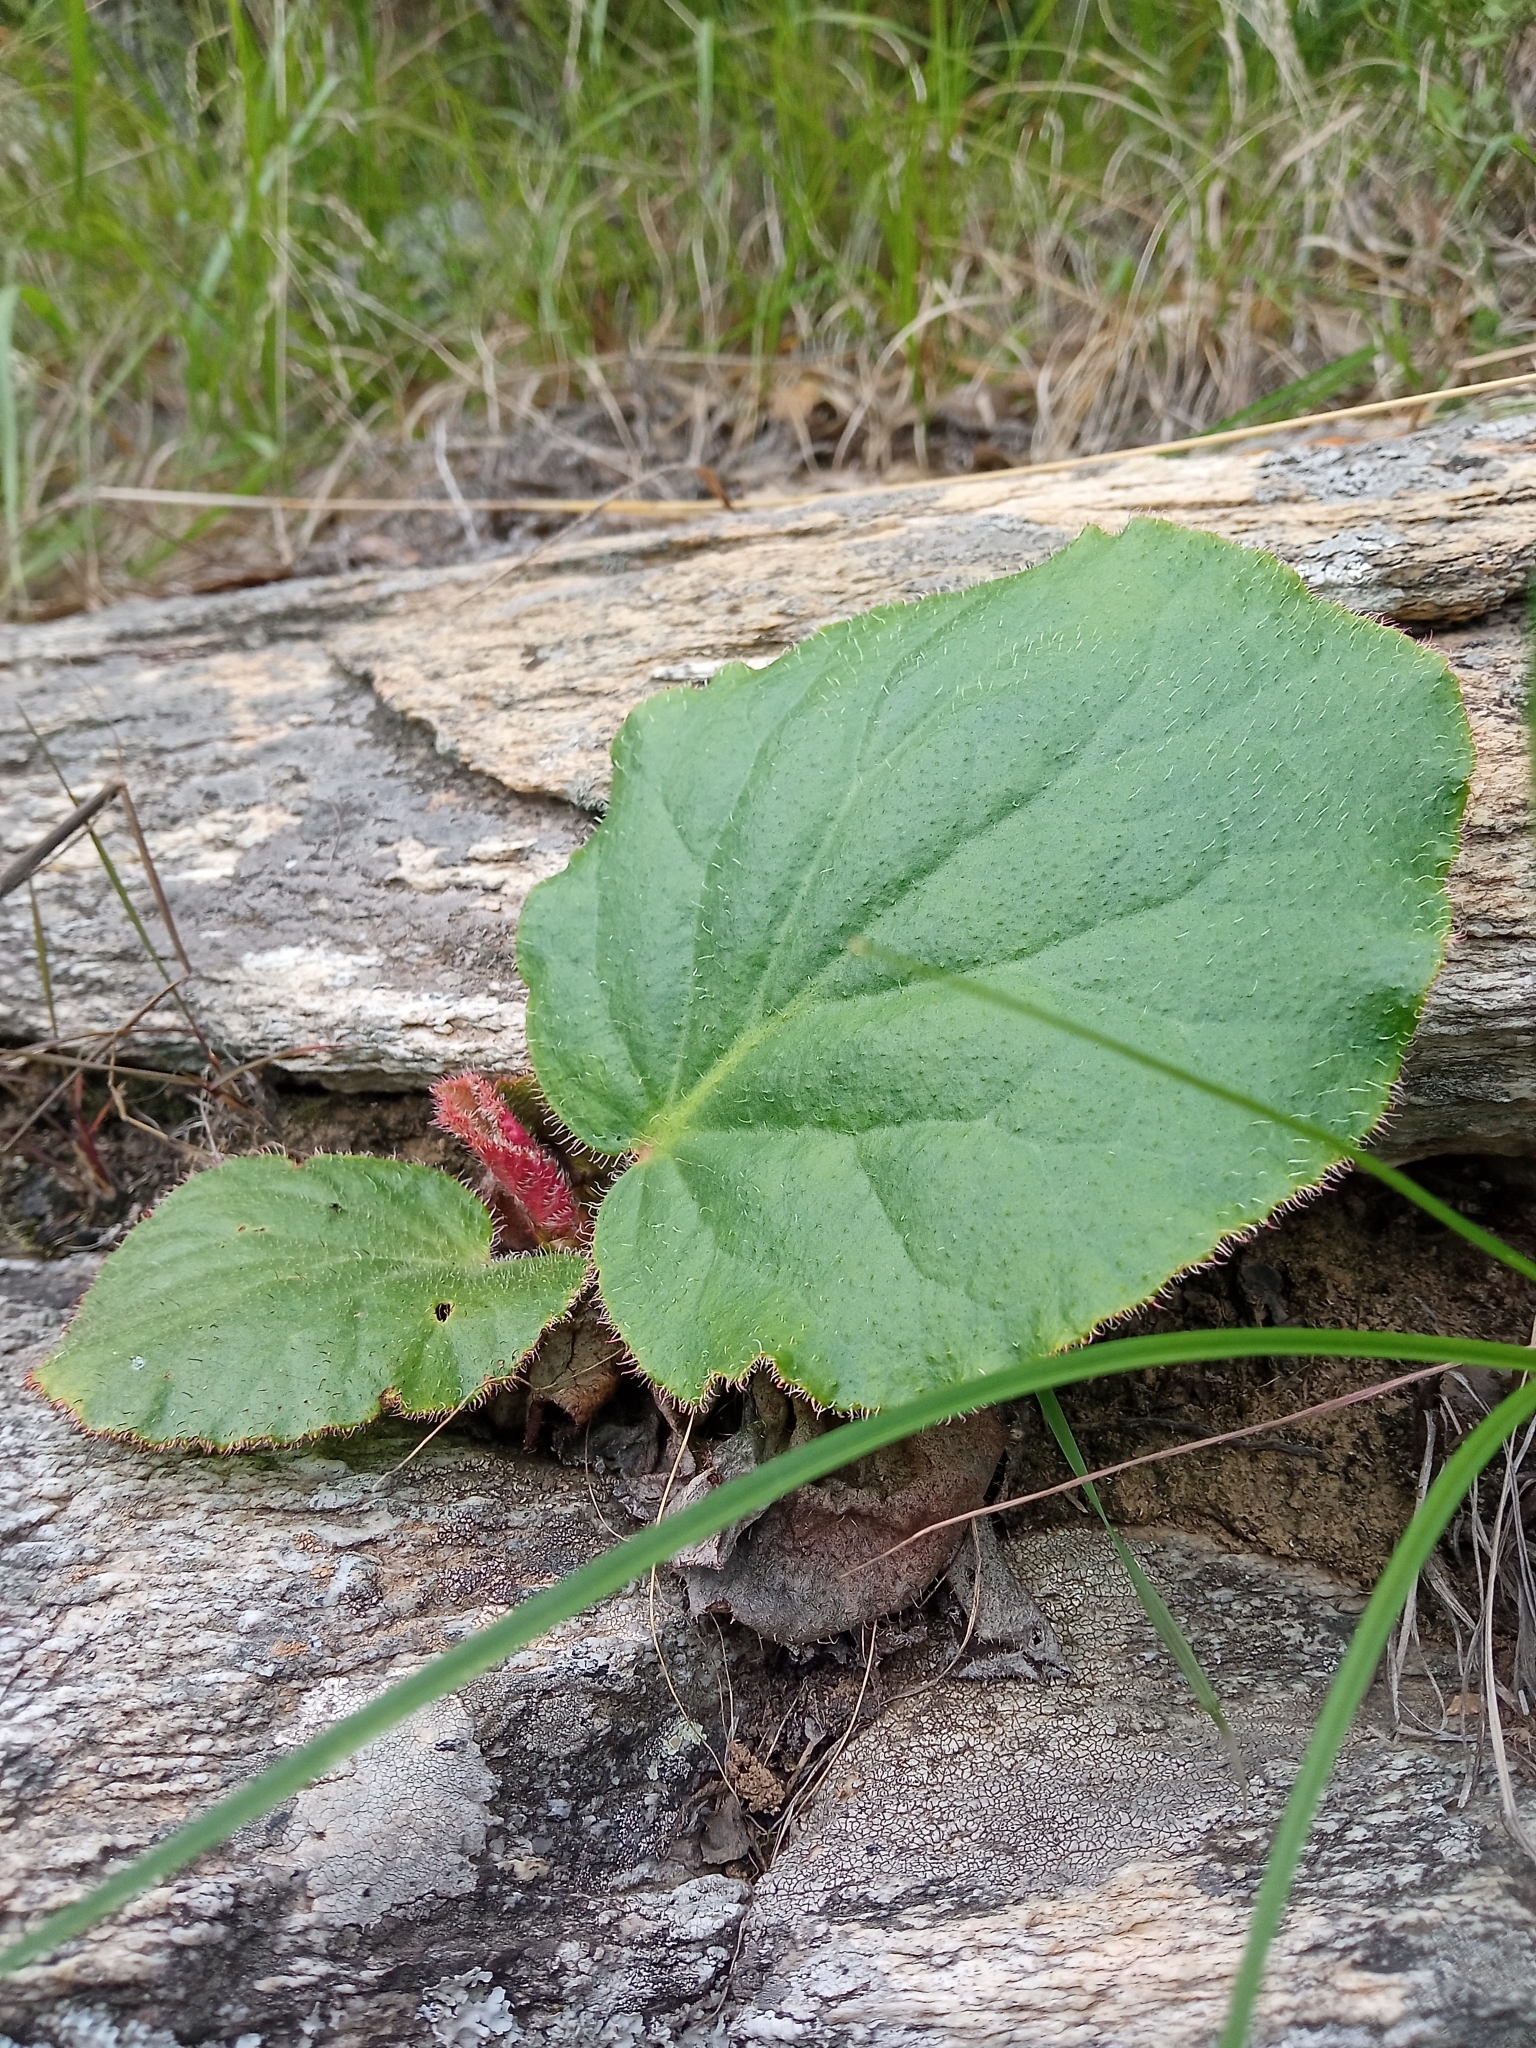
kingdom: Plantae
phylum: Tracheophyta
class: Magnoliopsida
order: Saxifragales
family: Saxifragaceae
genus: Bergenia
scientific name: Bergenia ciliata
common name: Hairy bergenia
